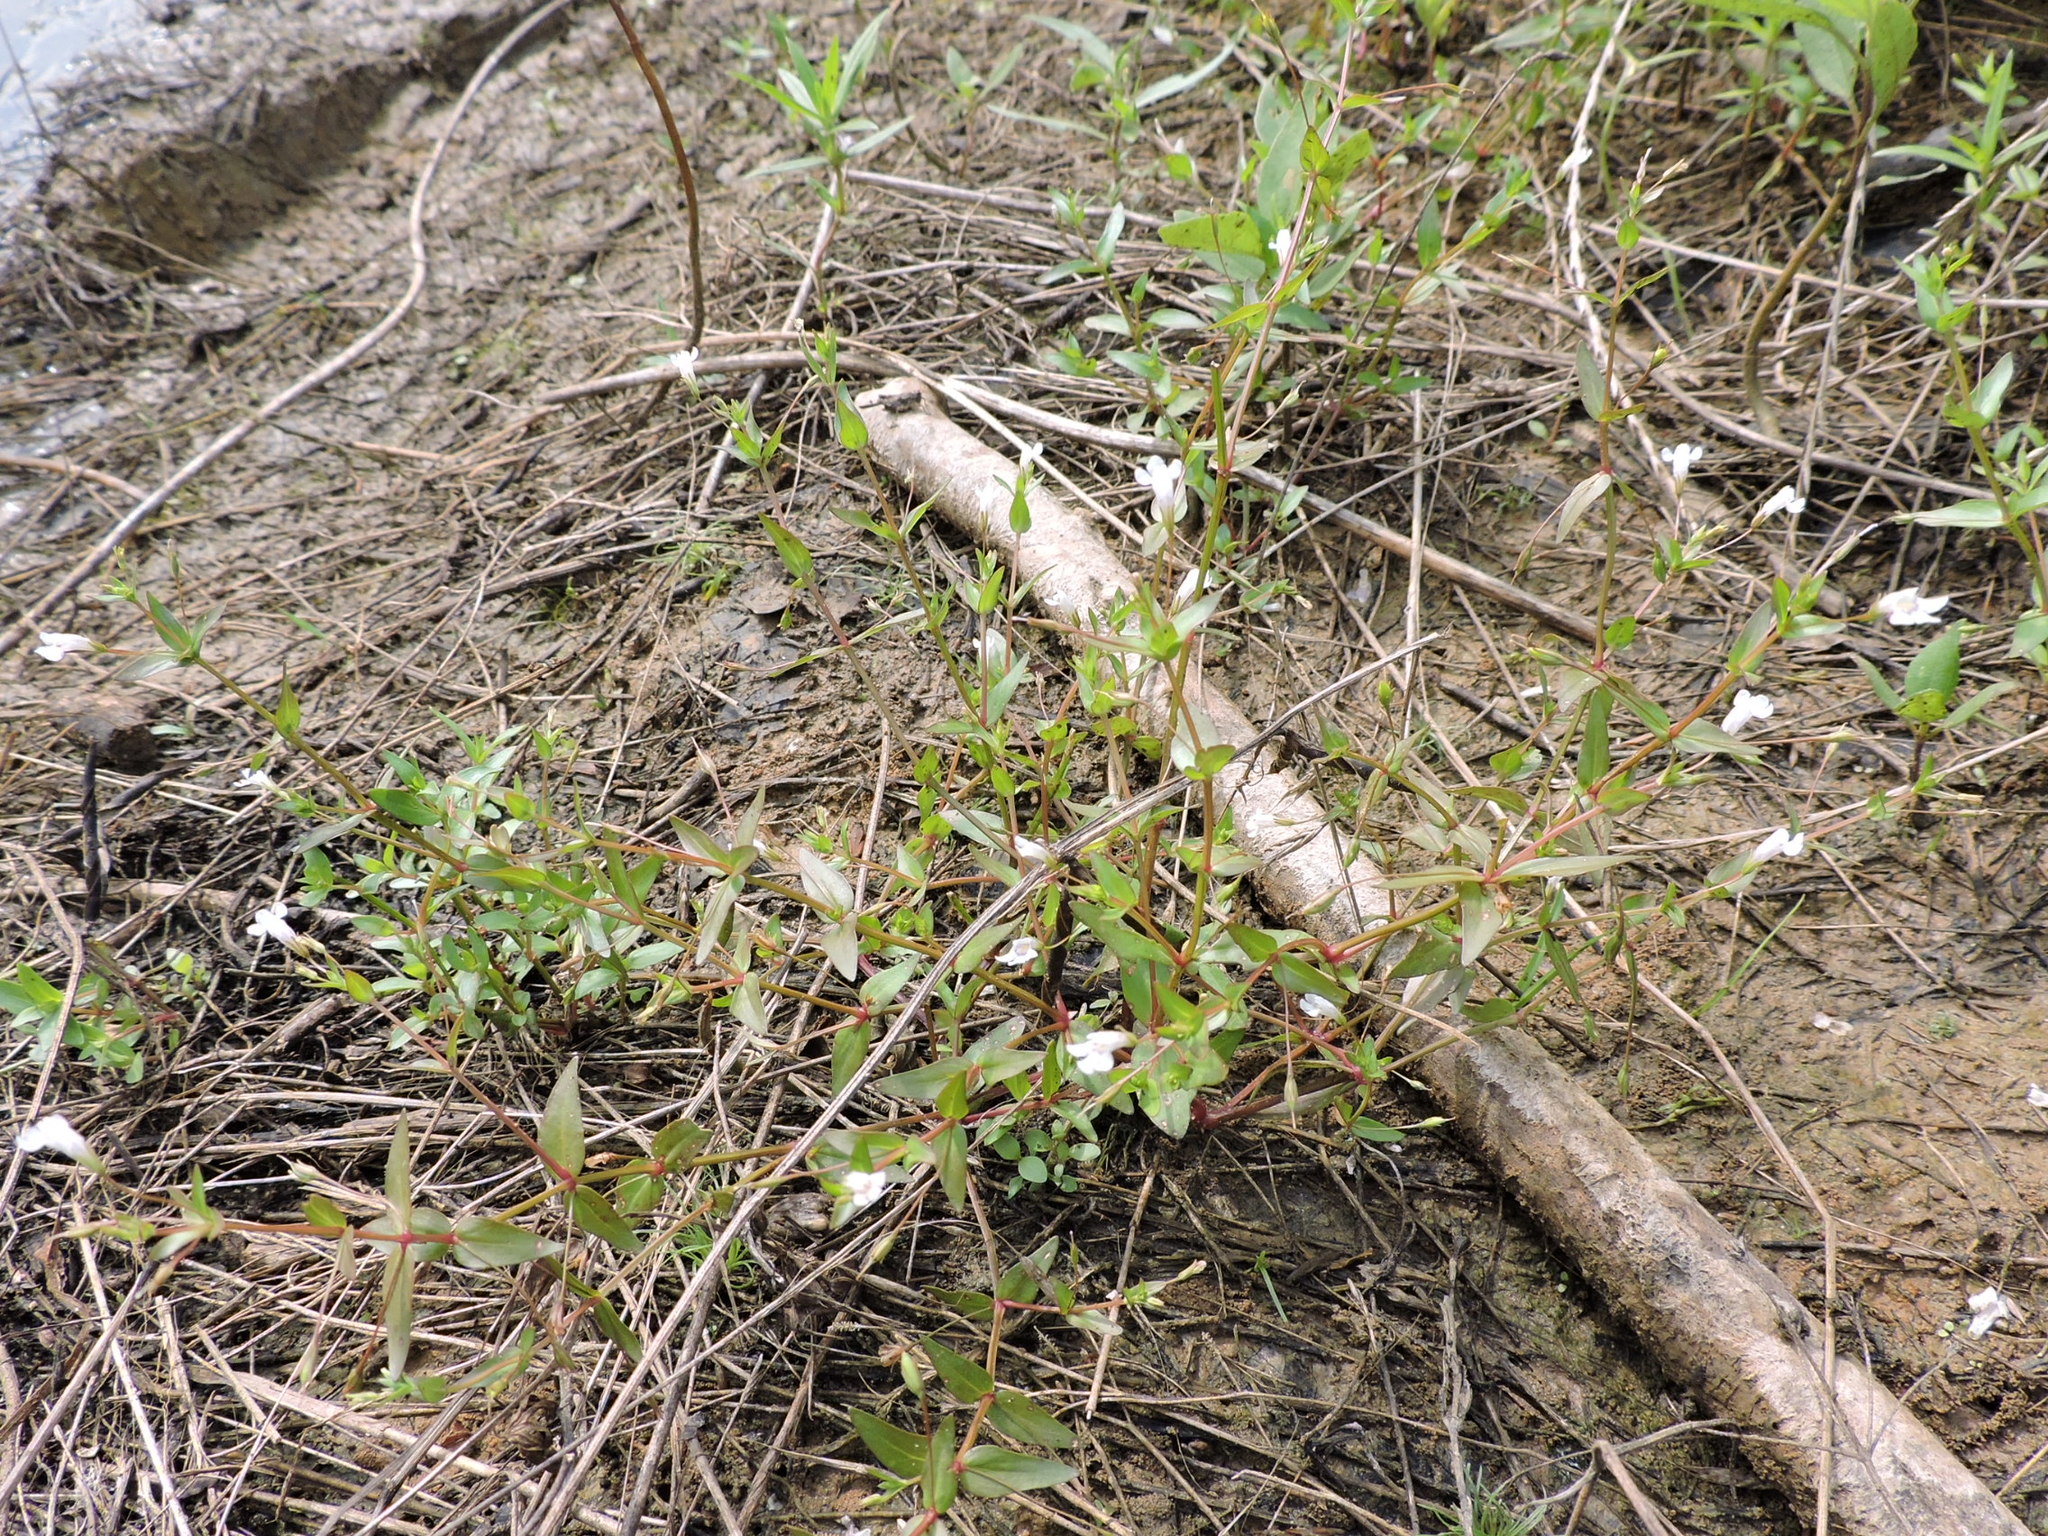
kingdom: Plantae
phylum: Tracheophyta
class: Magnoliopsida
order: Lamiales
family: Linderniaceae
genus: Lindernia
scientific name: Lindernia dubia
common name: Annual false pimpernel
